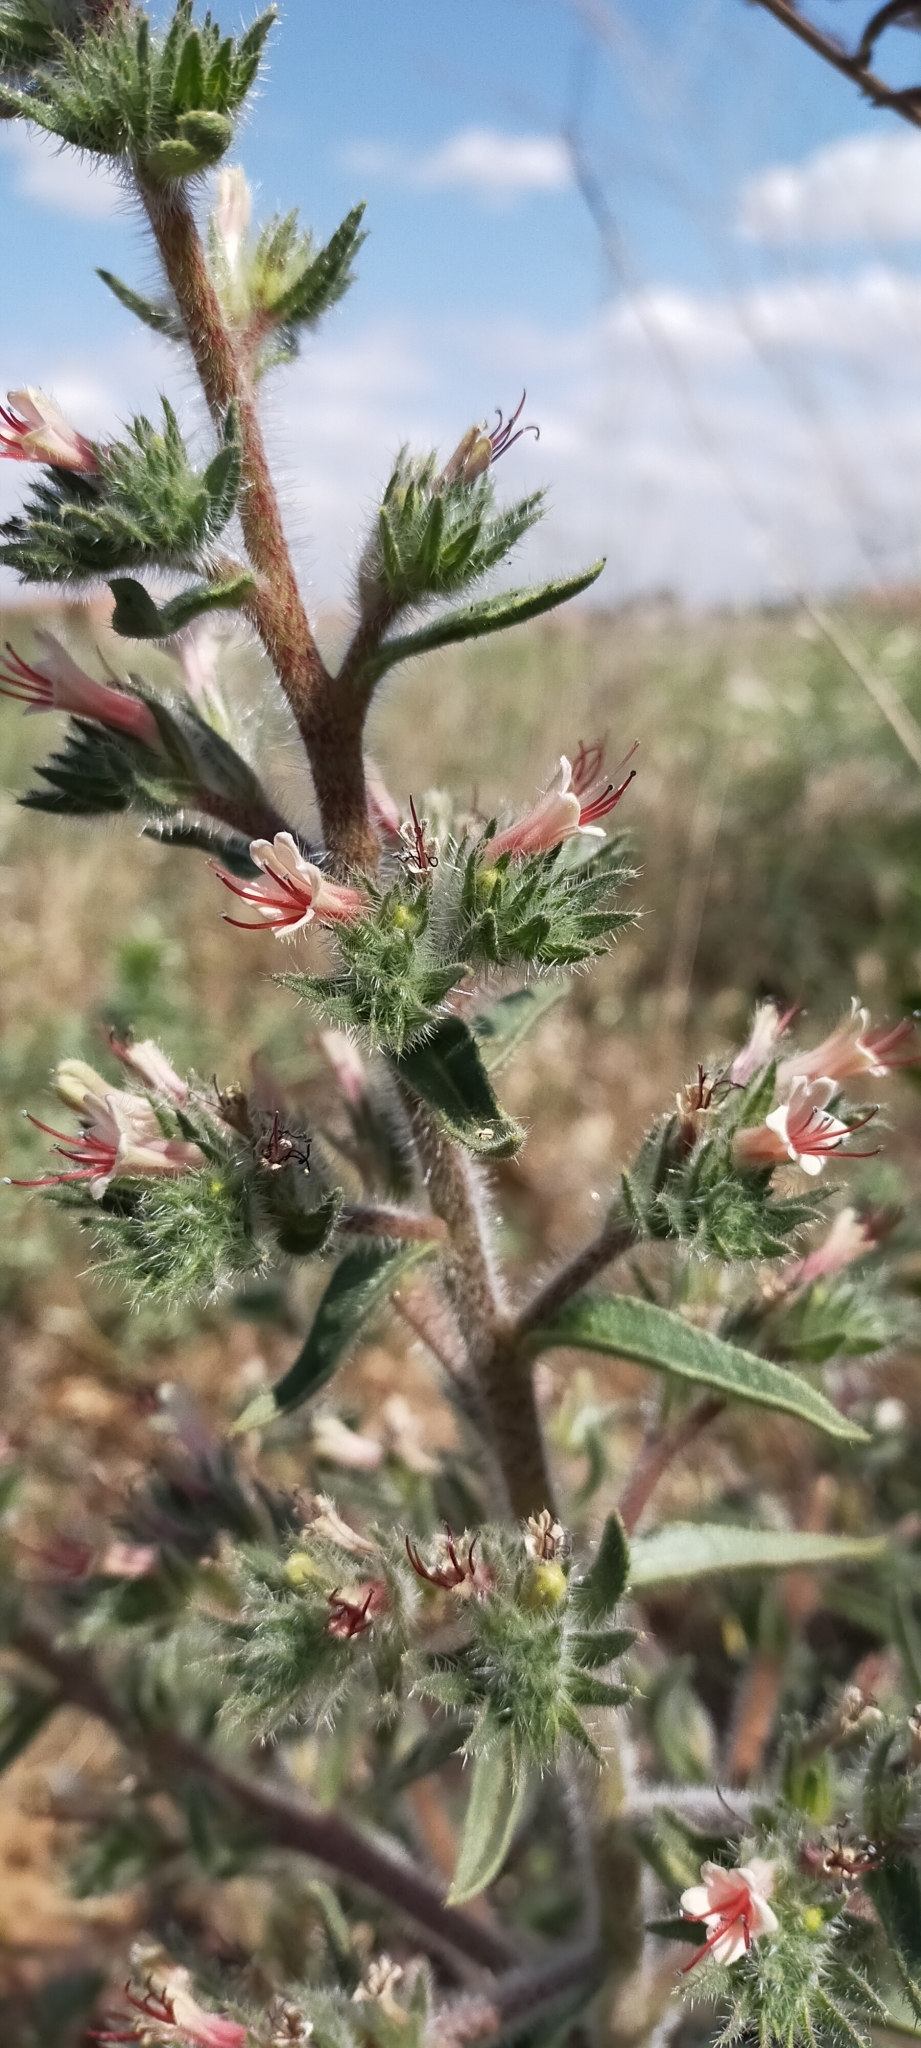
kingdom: Plantae
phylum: Tracheophyta
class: Magnoliopsida
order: Boraginales
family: Boraginaceae
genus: Echium
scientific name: Echium asperrimum
